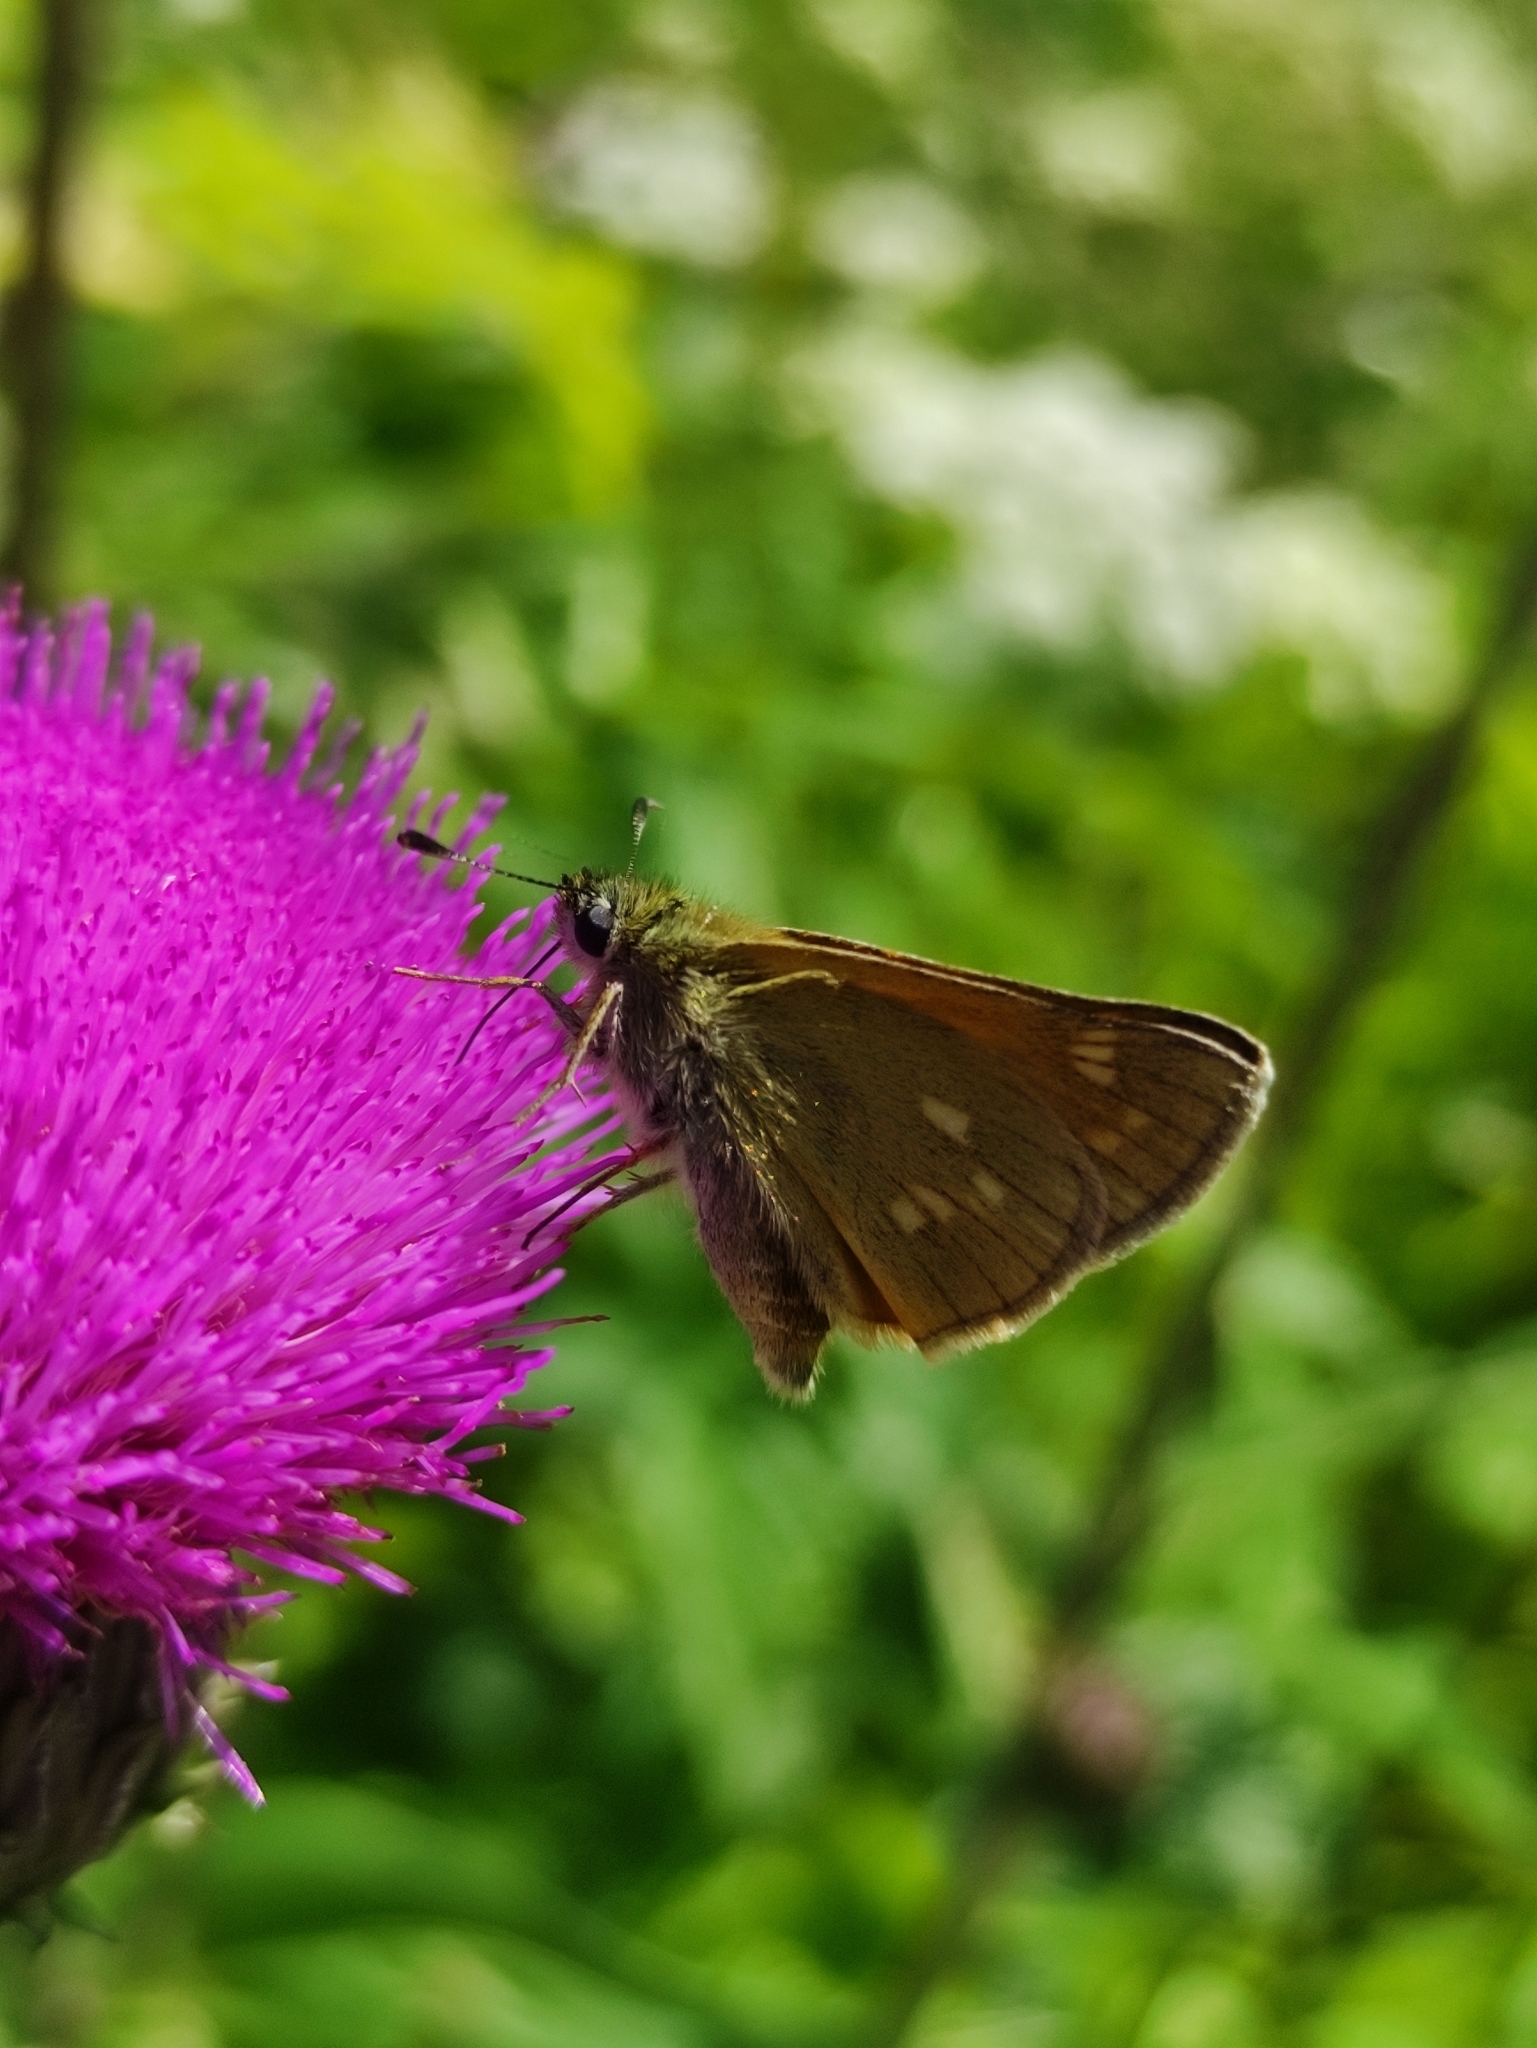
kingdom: Animalia
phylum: Arthropoda
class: Insecta
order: Lepidoptera
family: Hesperiidae
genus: Ochlodes
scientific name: Ochlodes venata
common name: Large skipper
